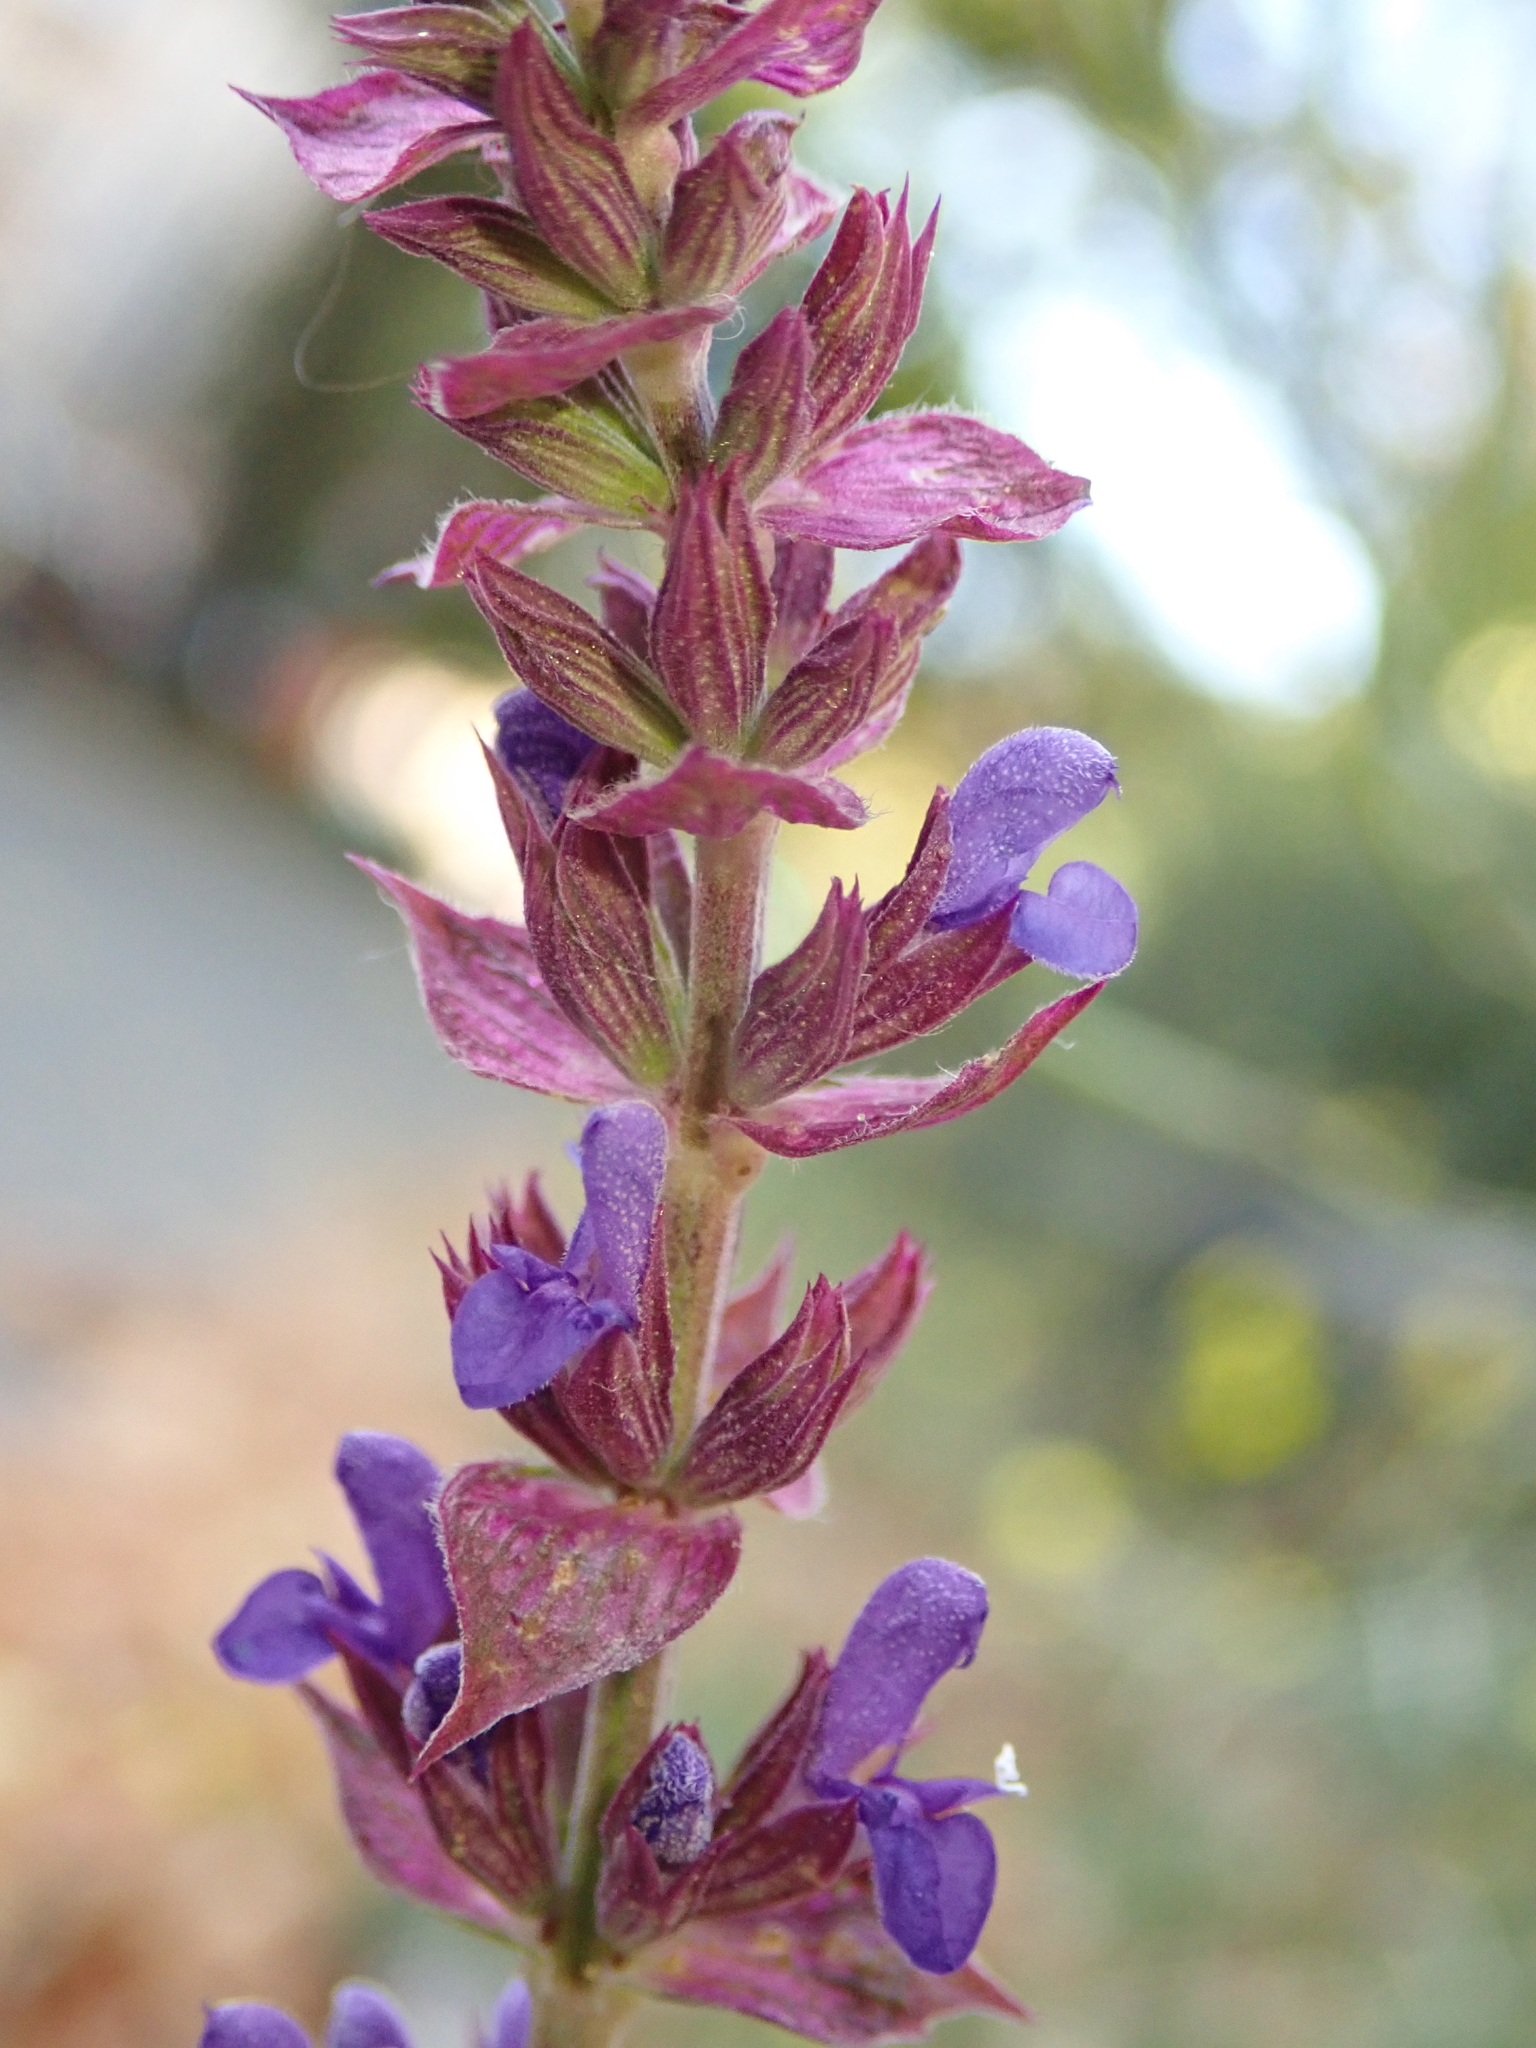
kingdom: Plantae
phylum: Tracheophyta
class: Magnoliopsida
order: Lamiales
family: Lamiaceae
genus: Salvia
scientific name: Salvia nemorosa
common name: Balkan clary
